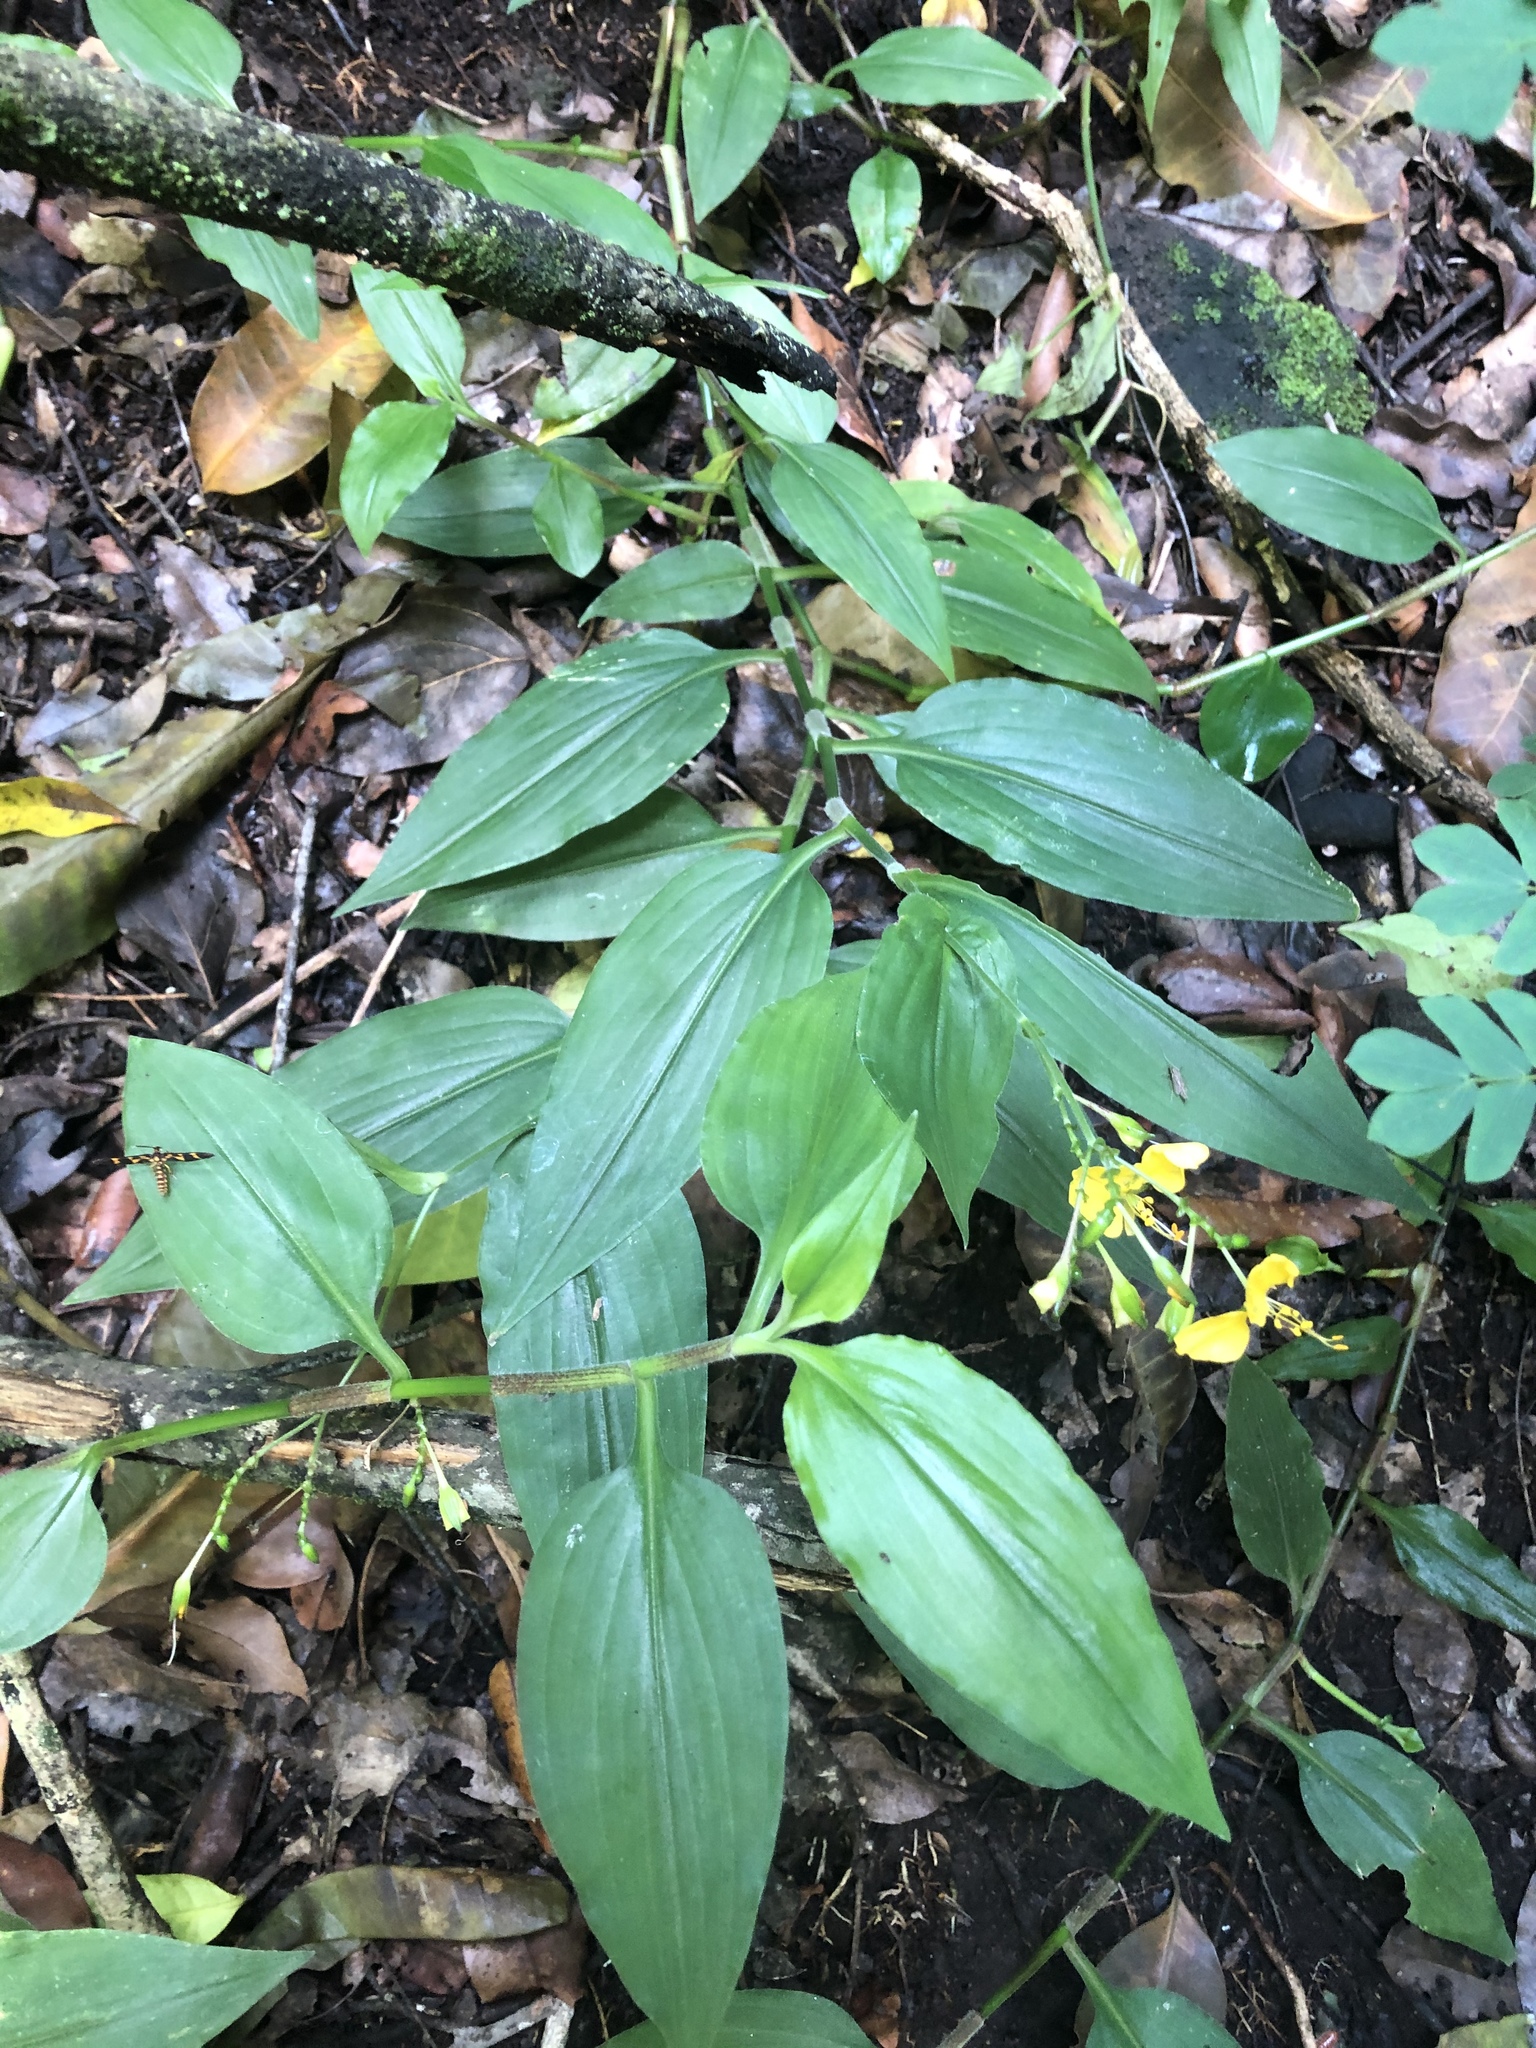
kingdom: Plantae
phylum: Tracheophyta
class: Liliopsida
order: Commelinales
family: Commelinaceae
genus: Aneilema
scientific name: Aneilema aequinoctiale
